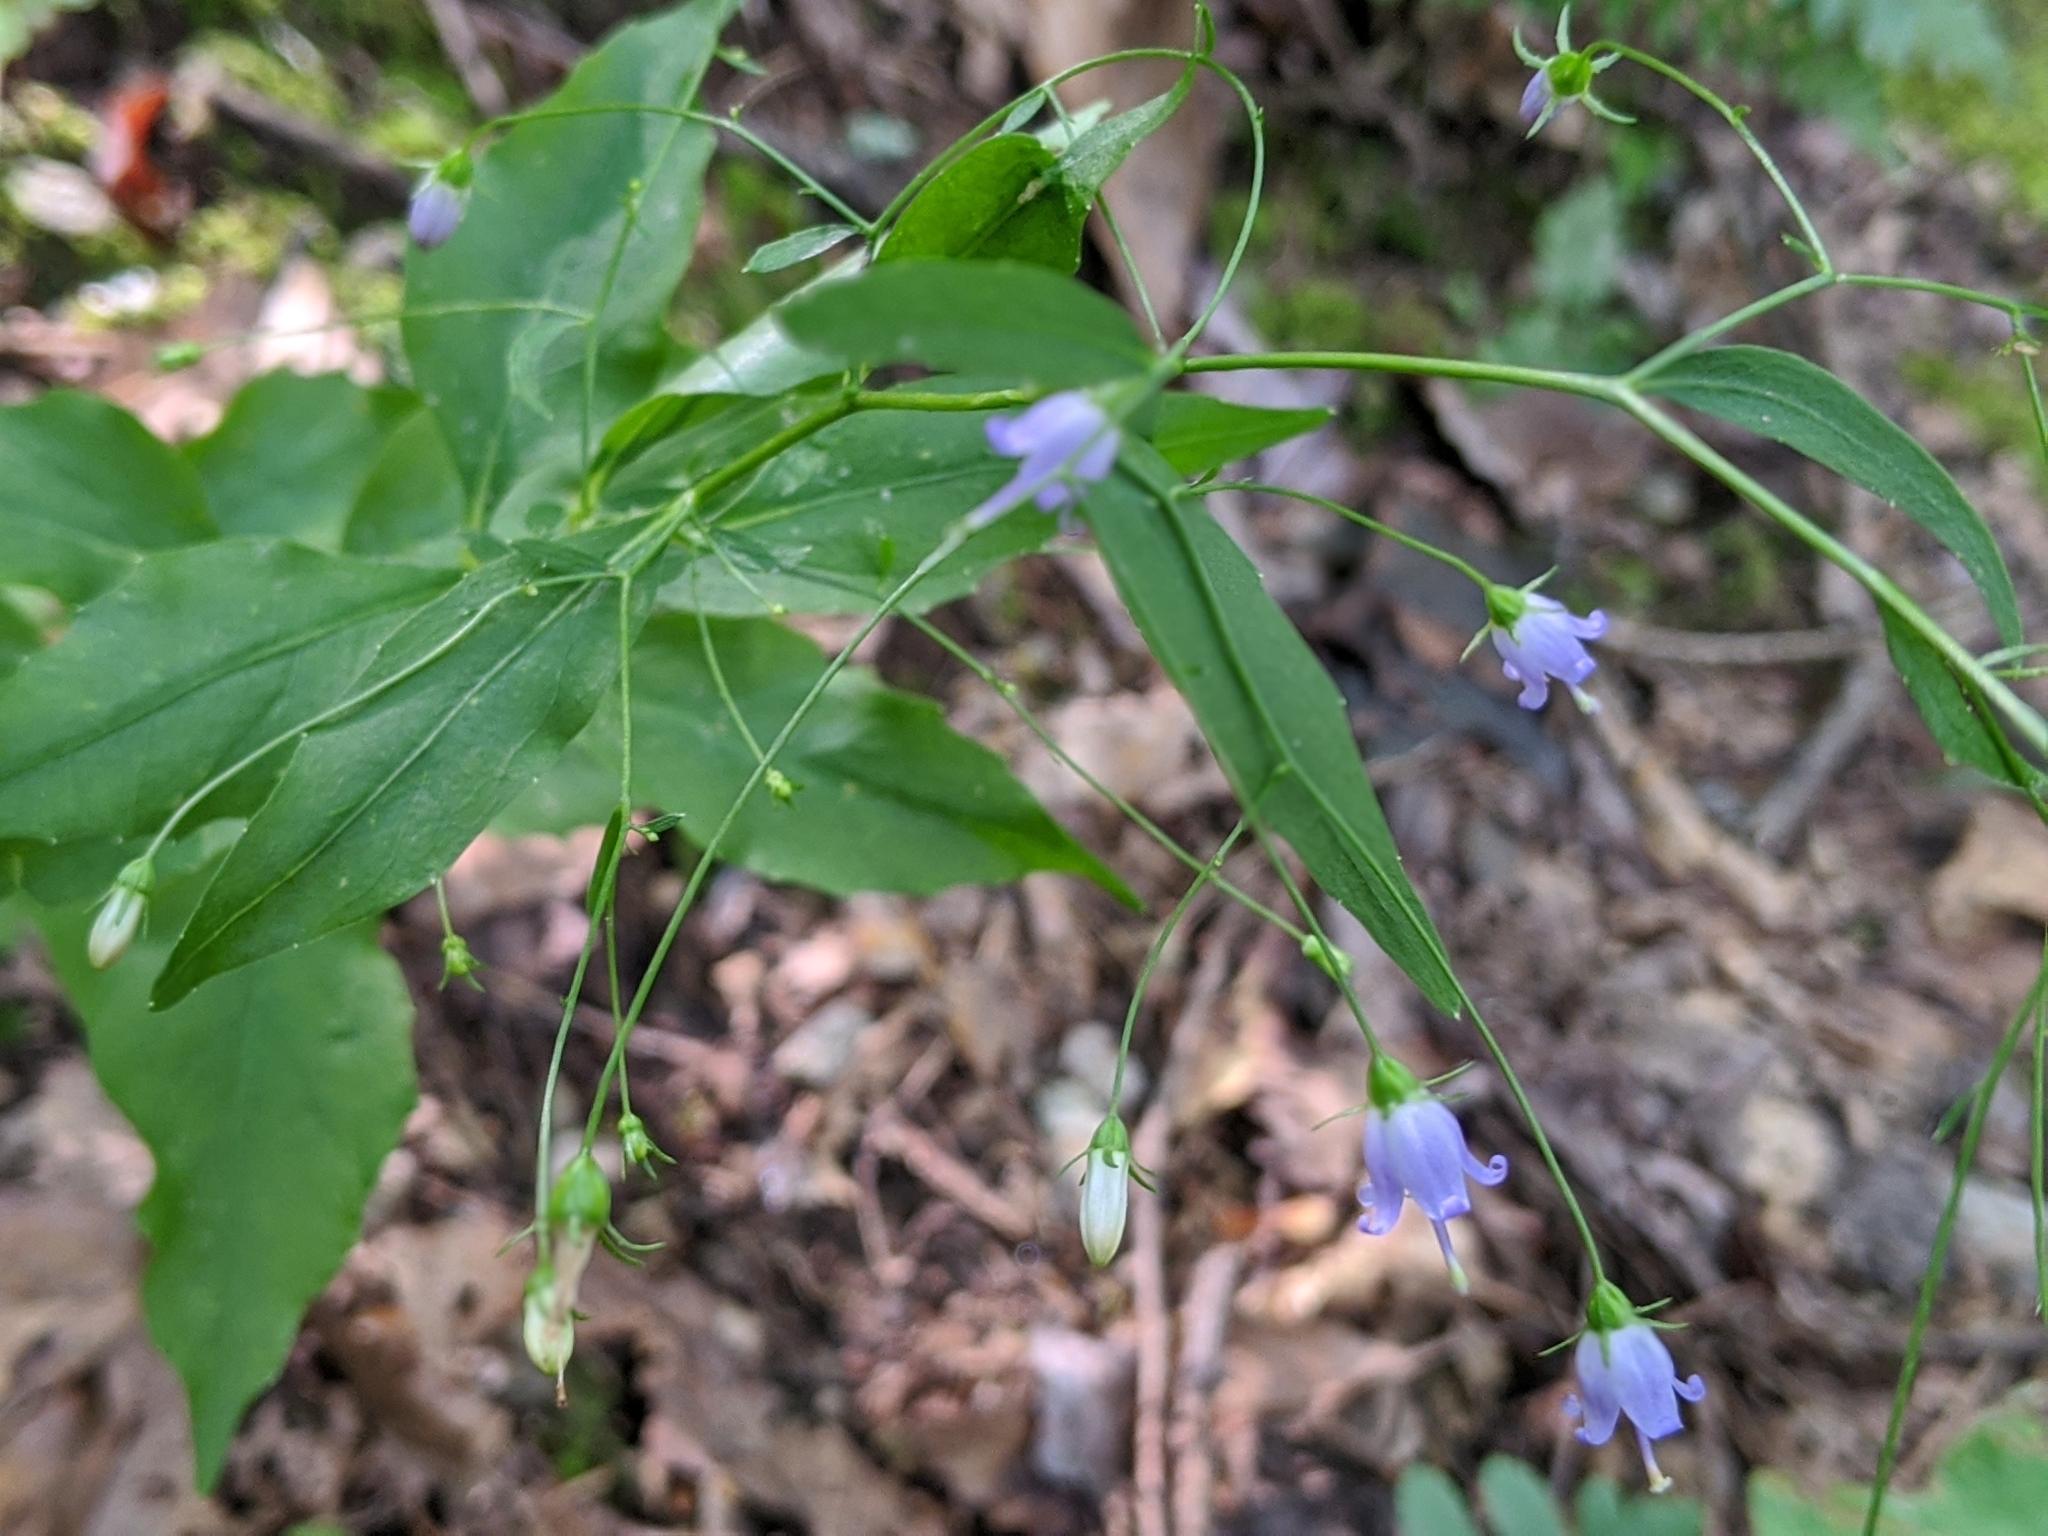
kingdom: Plantae
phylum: Tracheophyta
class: Magnoliopsida
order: Asterales
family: Campanulaceae
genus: Campanula
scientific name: Campanula divaricata
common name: Appalachian bellflower
